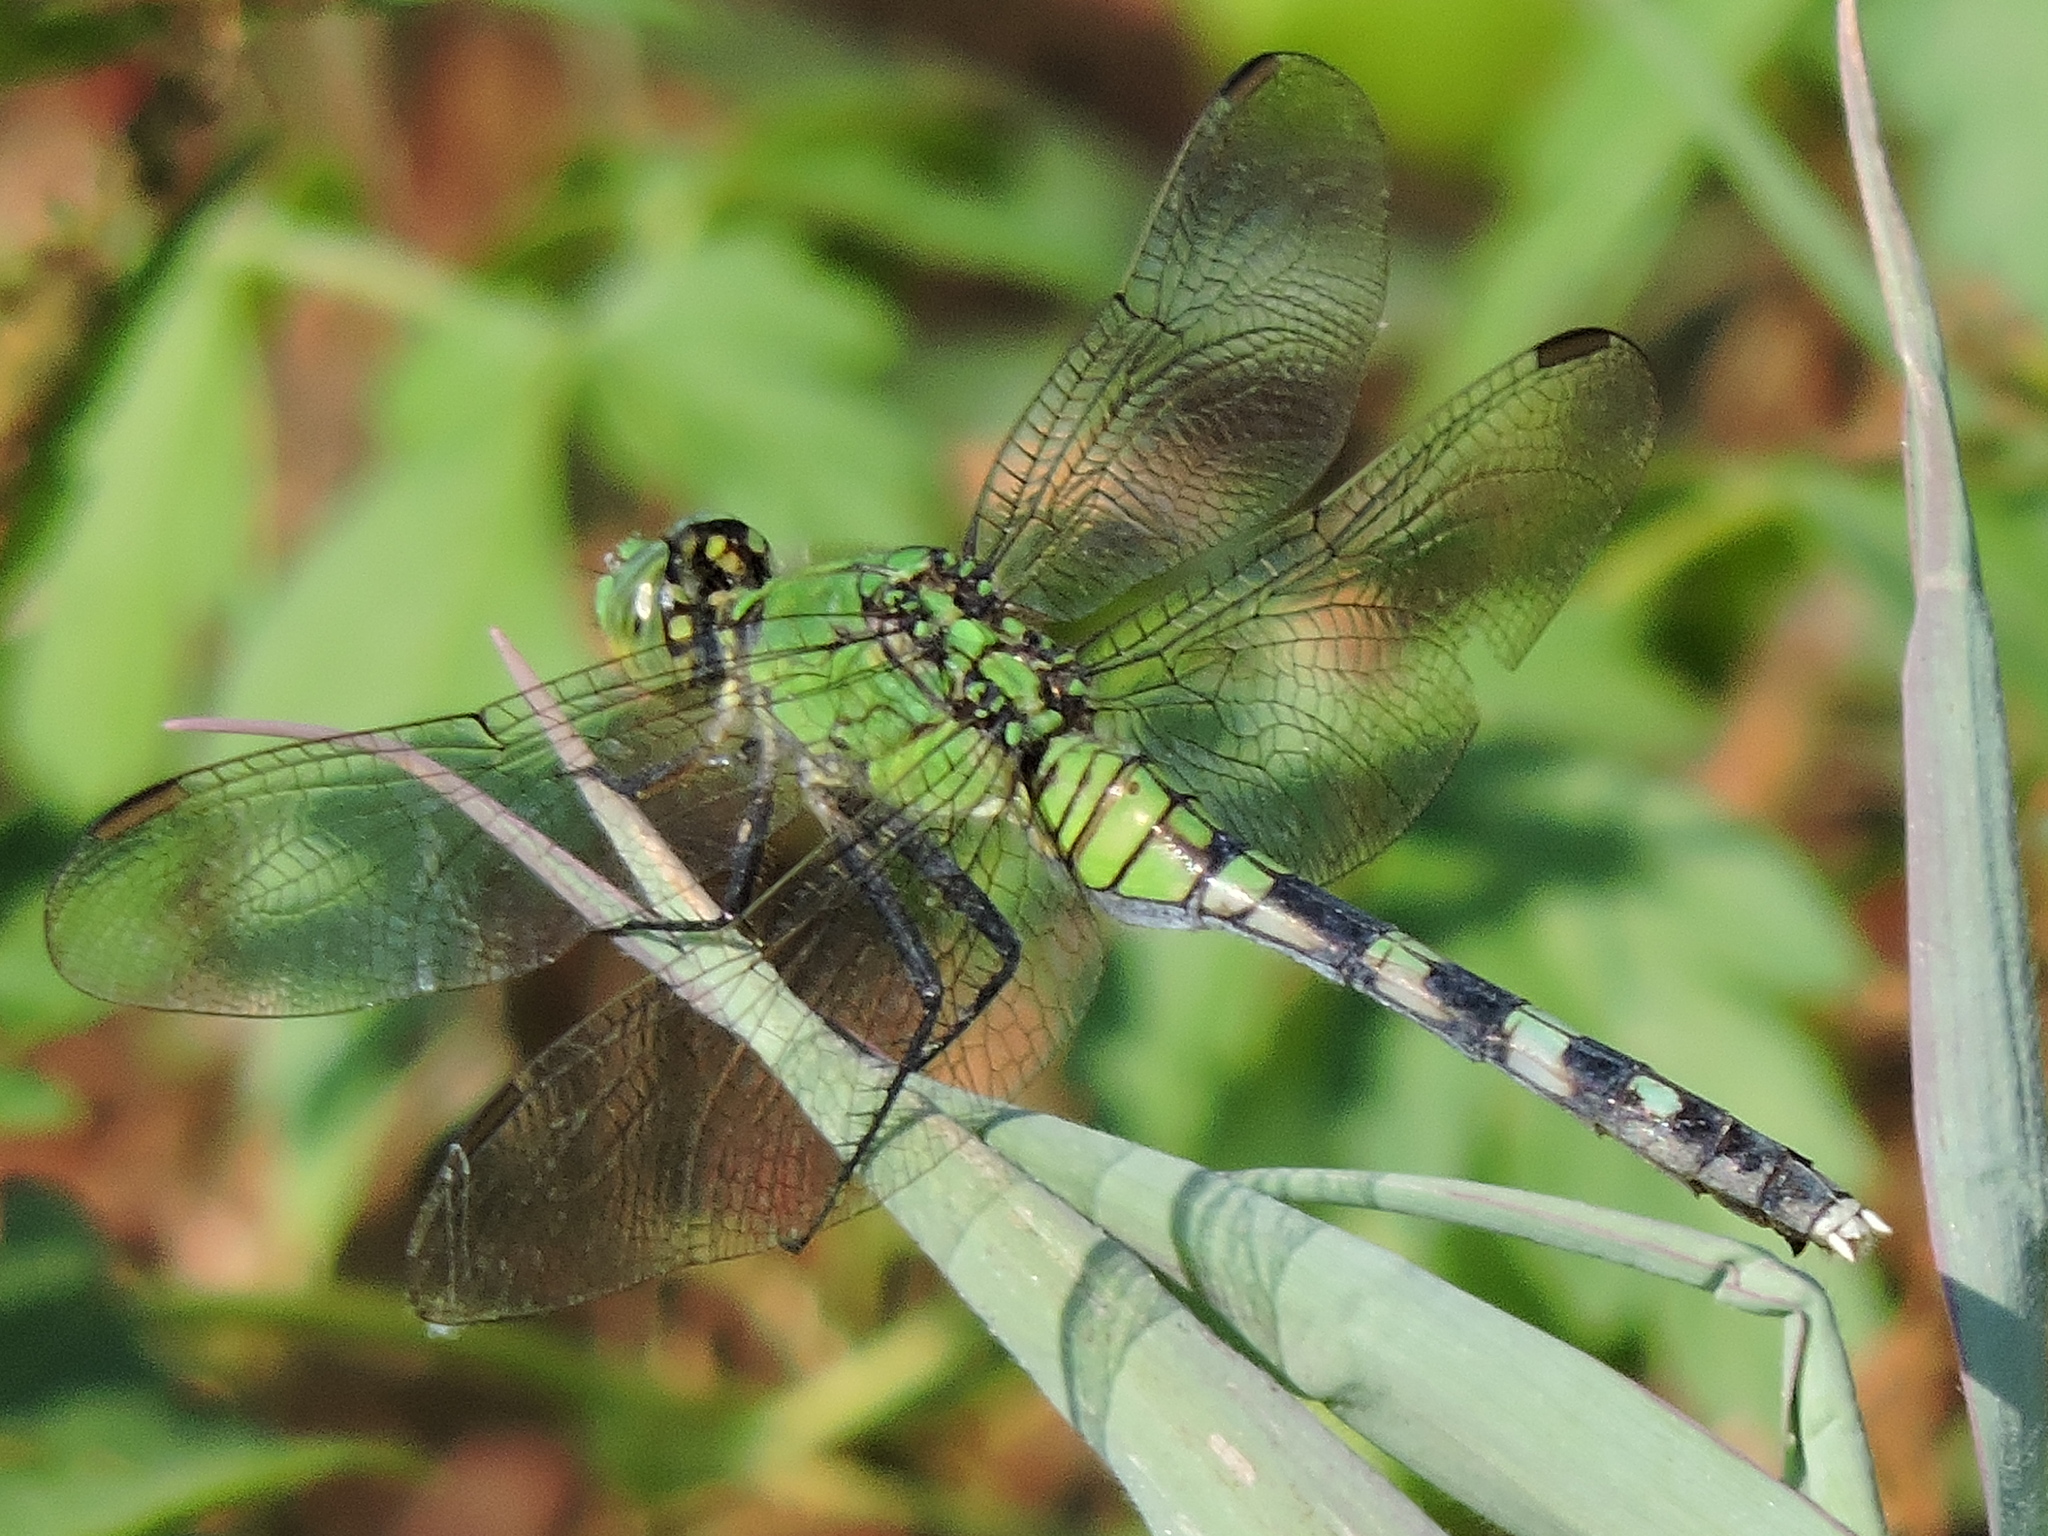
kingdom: Animalia
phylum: Arthropoda
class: Insecta
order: Odonata
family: Libellulidae
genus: Erythemis
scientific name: Erythemis simplicicollis
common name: Eastern pondhawk
